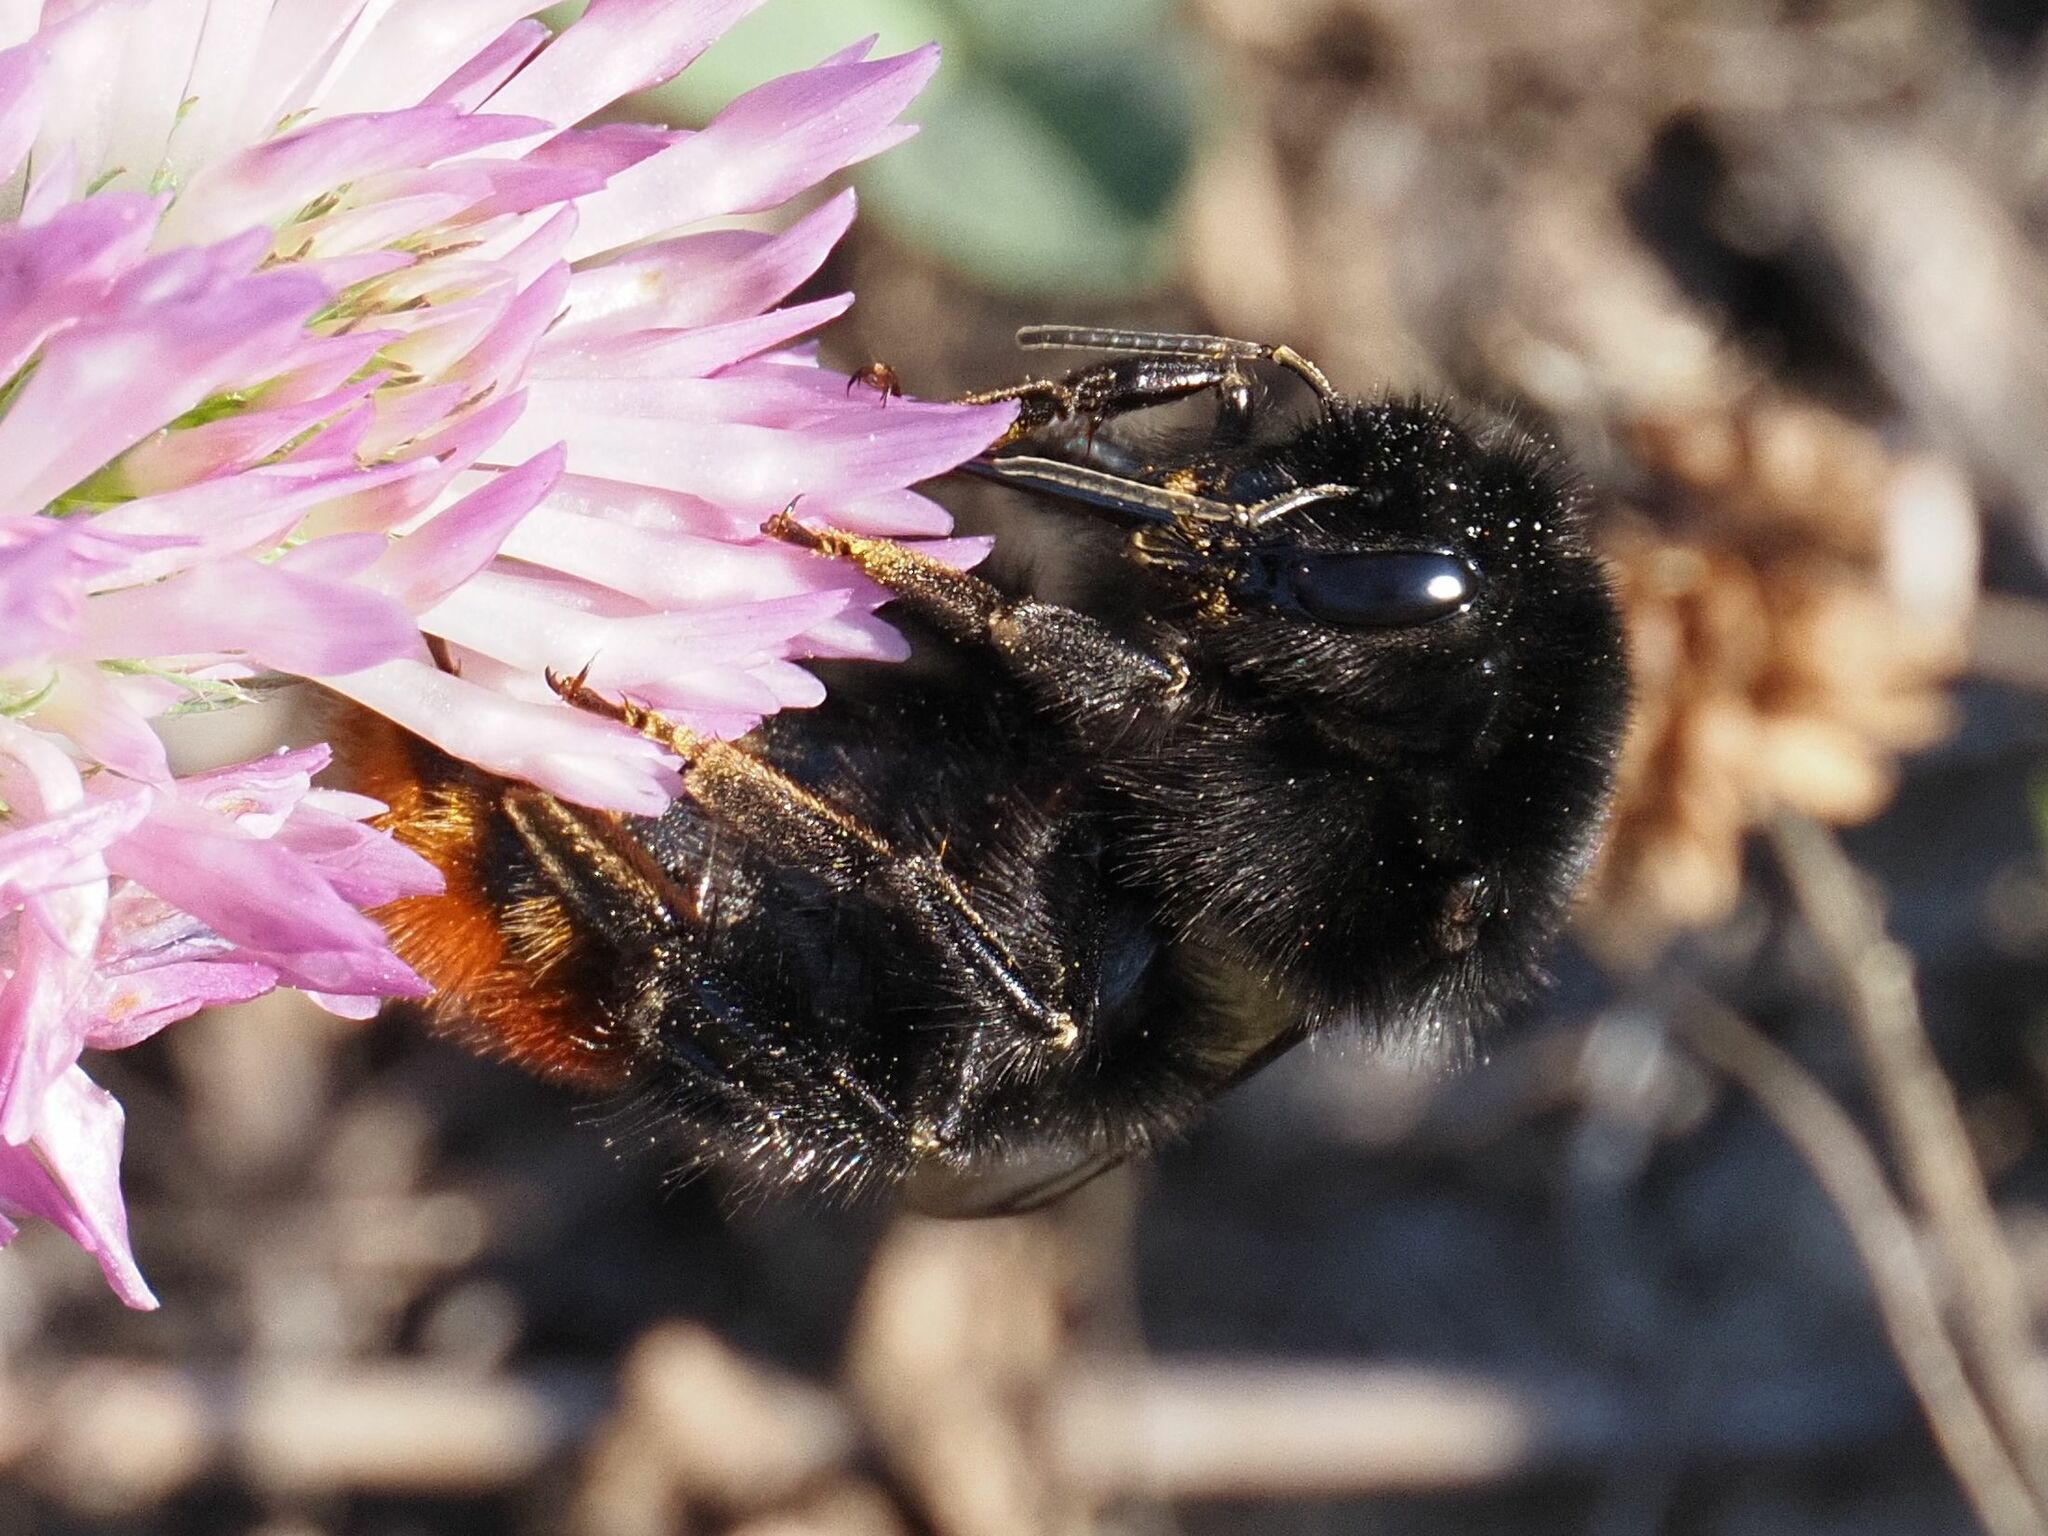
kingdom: Animalia
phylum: Arthropoda
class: Insecta
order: Hymenoptera
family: Apidae
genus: Bombus
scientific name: Bombus lapidarius
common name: Large red-tailed humble-bee
